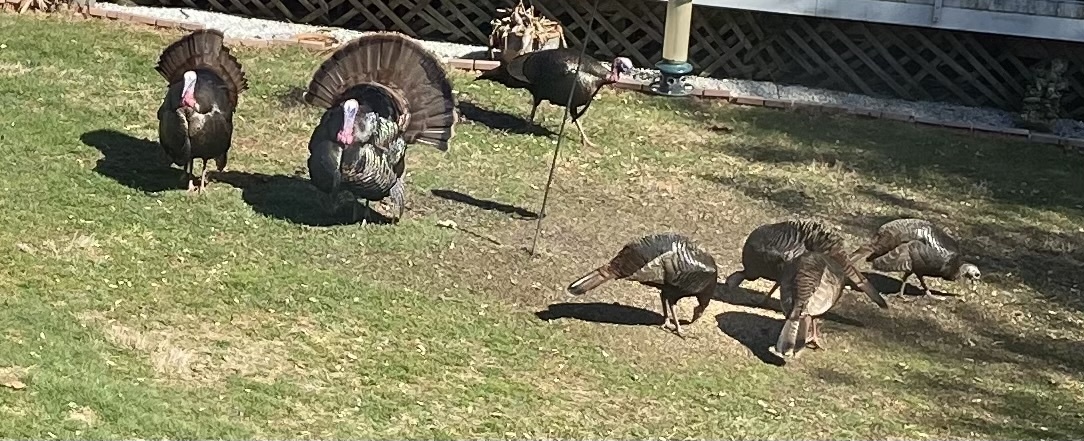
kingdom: Animalia
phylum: Chordata
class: Aves
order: Galliformes
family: Phasianidae
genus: Meleagris
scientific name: Meleagris gallopavo
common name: Wild turkey
